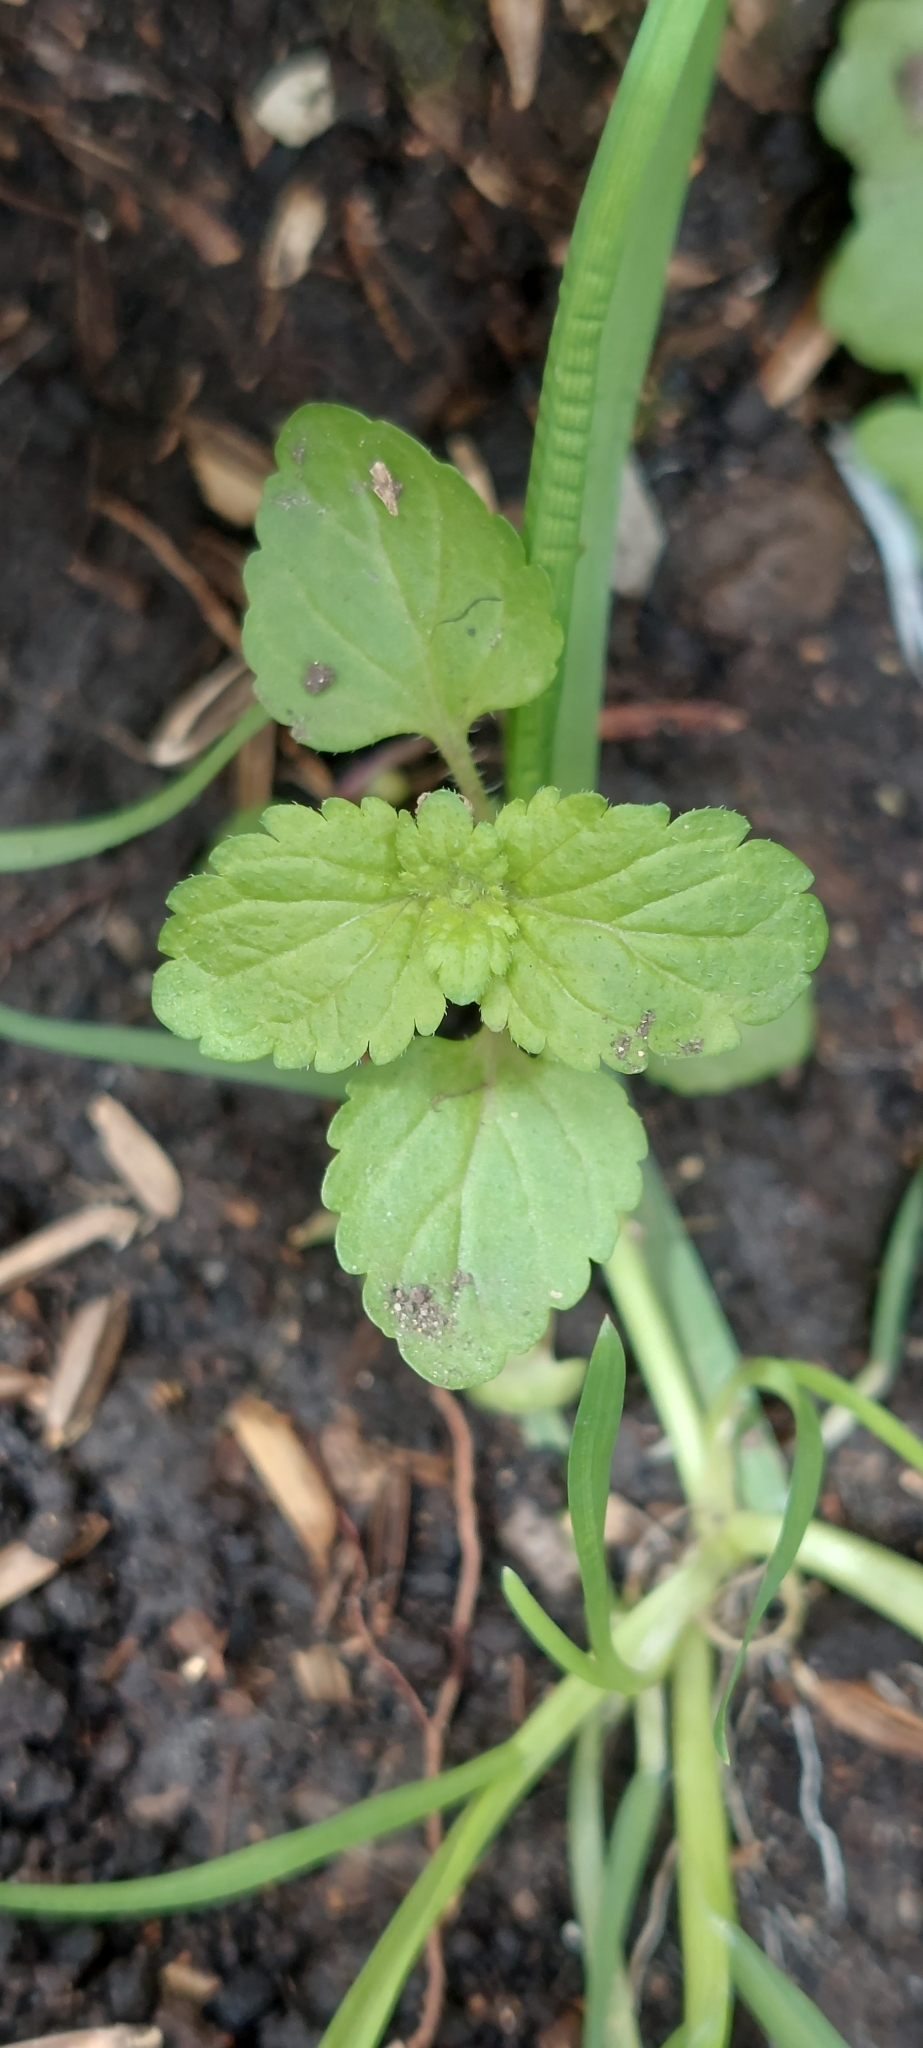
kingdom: Plantae
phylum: Tracheophyta
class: Magnoliopsida
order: Lamiales
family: Plantaginaceae
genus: Veronica
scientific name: Veronica javanica
